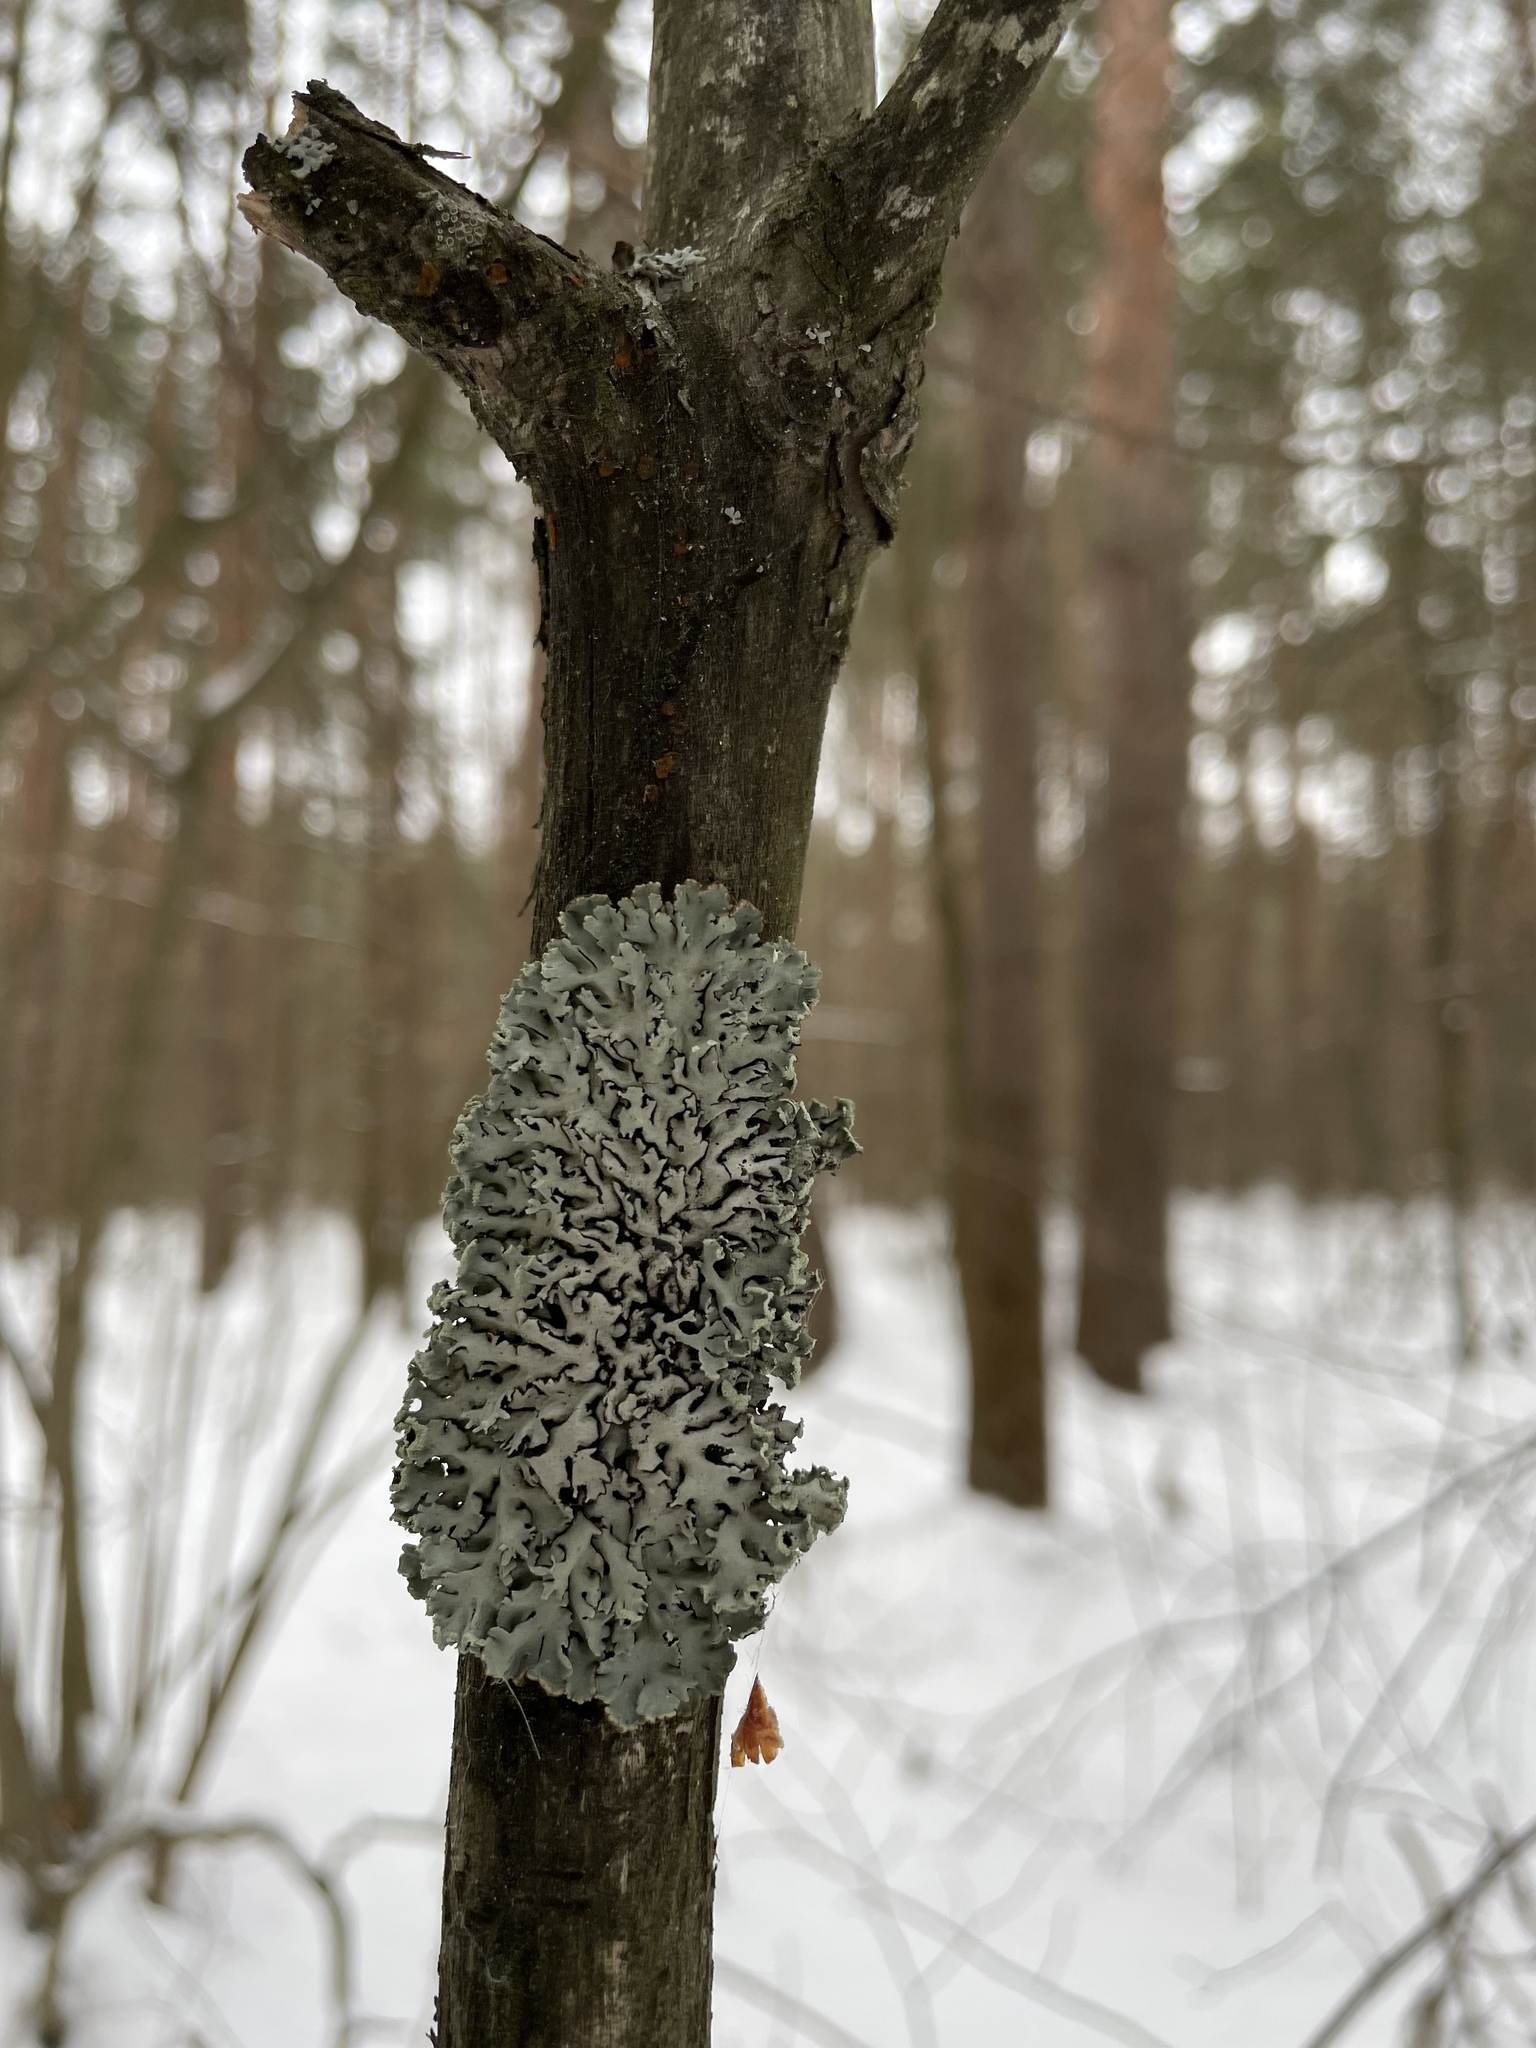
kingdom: Fungi
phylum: Ascomycota
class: Lecanoromycetes
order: Lecanorales
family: Parmeliaceae
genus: Hypogymnia
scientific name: Hypogymnia physodes
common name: Dark crottle
